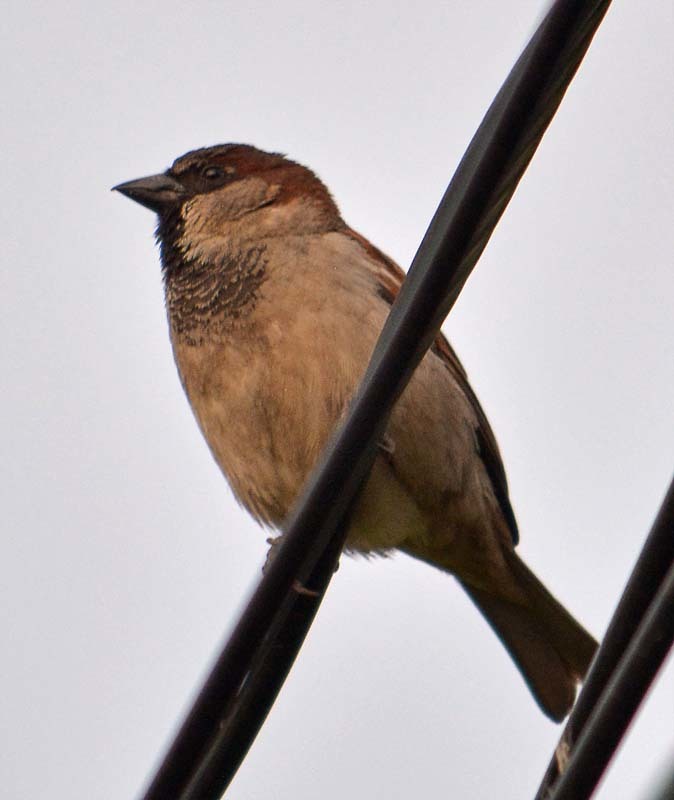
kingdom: Animalia
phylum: Chordata
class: Aves
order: Passeriformes
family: Passeridae
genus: Passer
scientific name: Passer domesticus
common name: House sparrow
